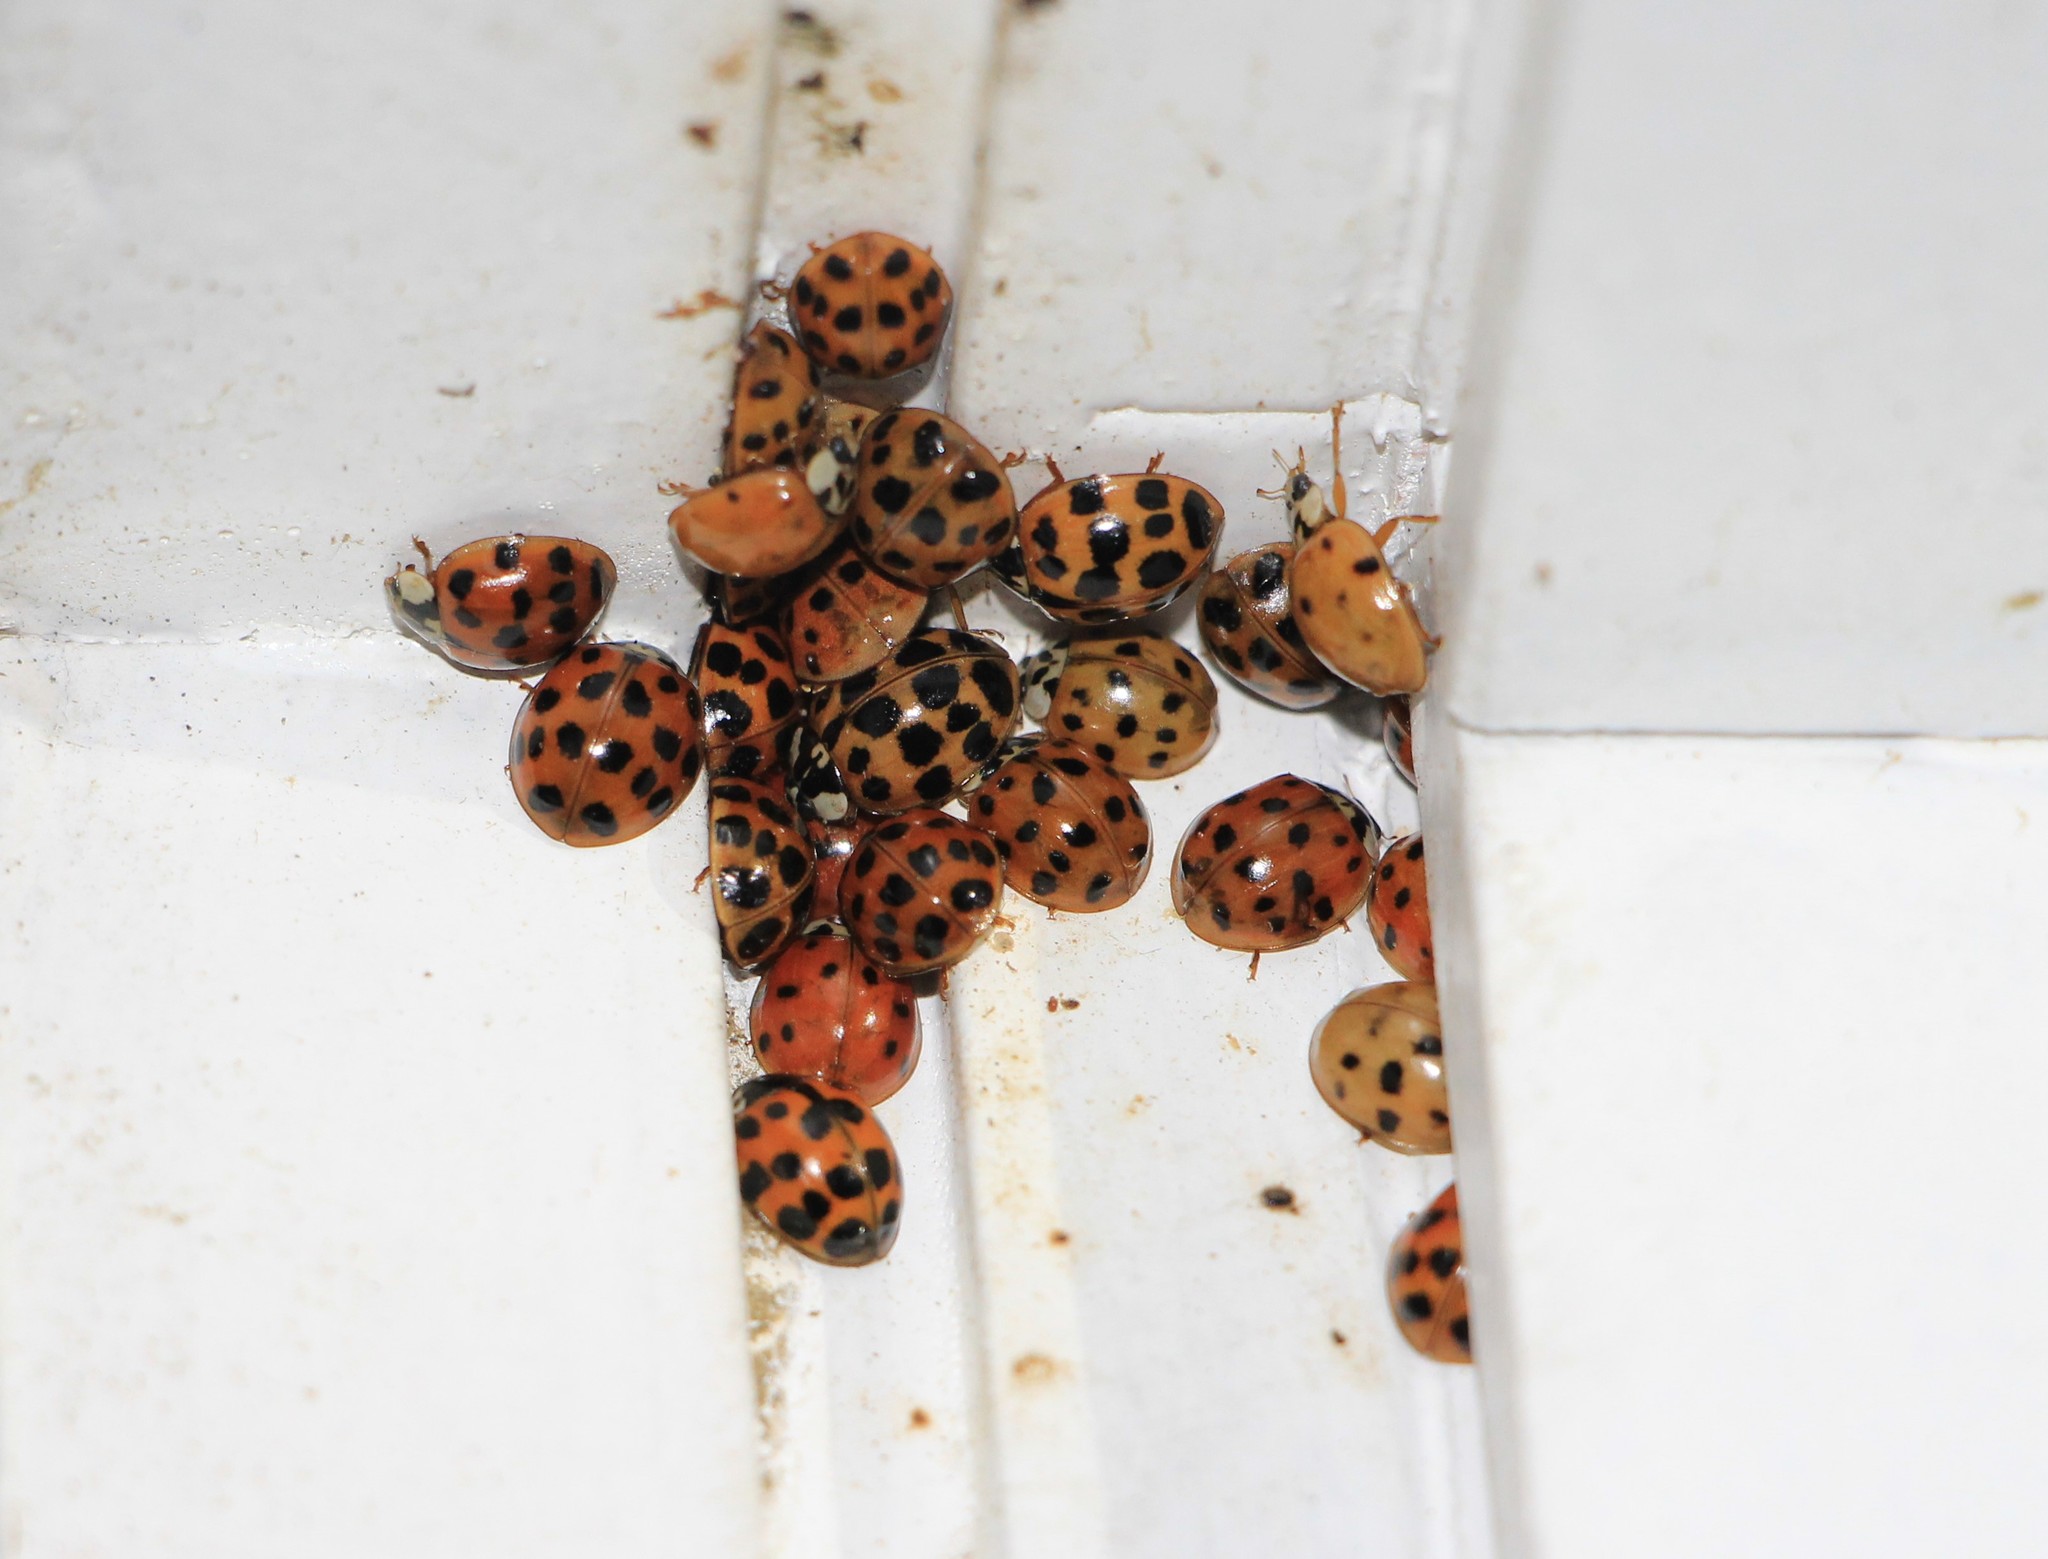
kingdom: Animalia
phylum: Arthropoda
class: Insecta
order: Coleoptera
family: Coccinellidae
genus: Harmonia
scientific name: Harmonia axyridis
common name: Harlequin ladybird
